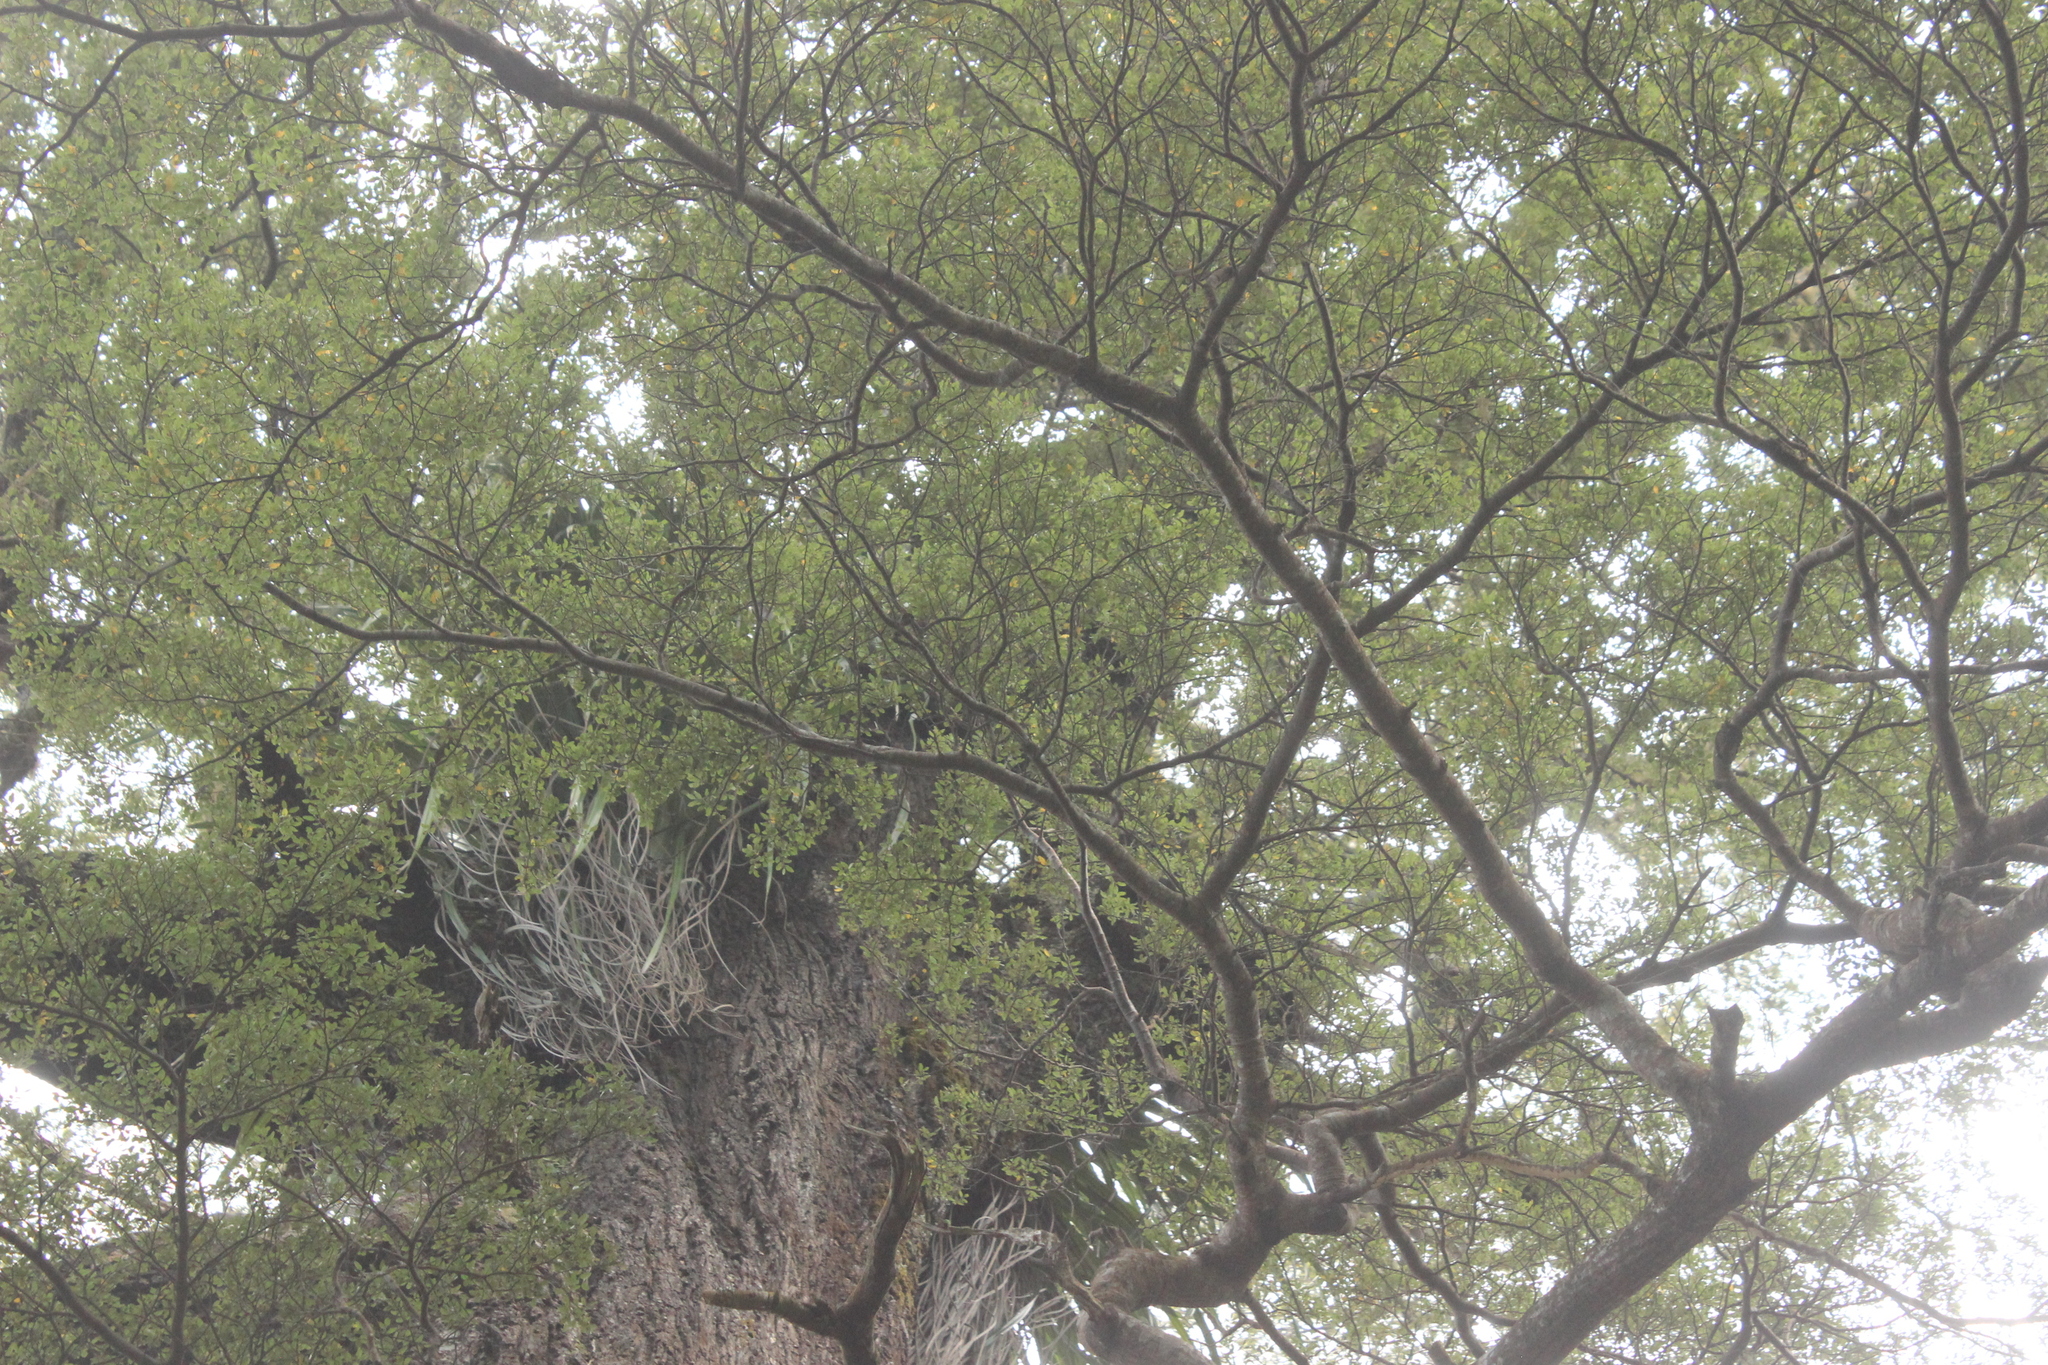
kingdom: Plantae
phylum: Tracheophyta
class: Magnoliopsida
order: Fagales
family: Nothofagaceae
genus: Nothofagus
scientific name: Nothofagus solandri
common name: Black beech
